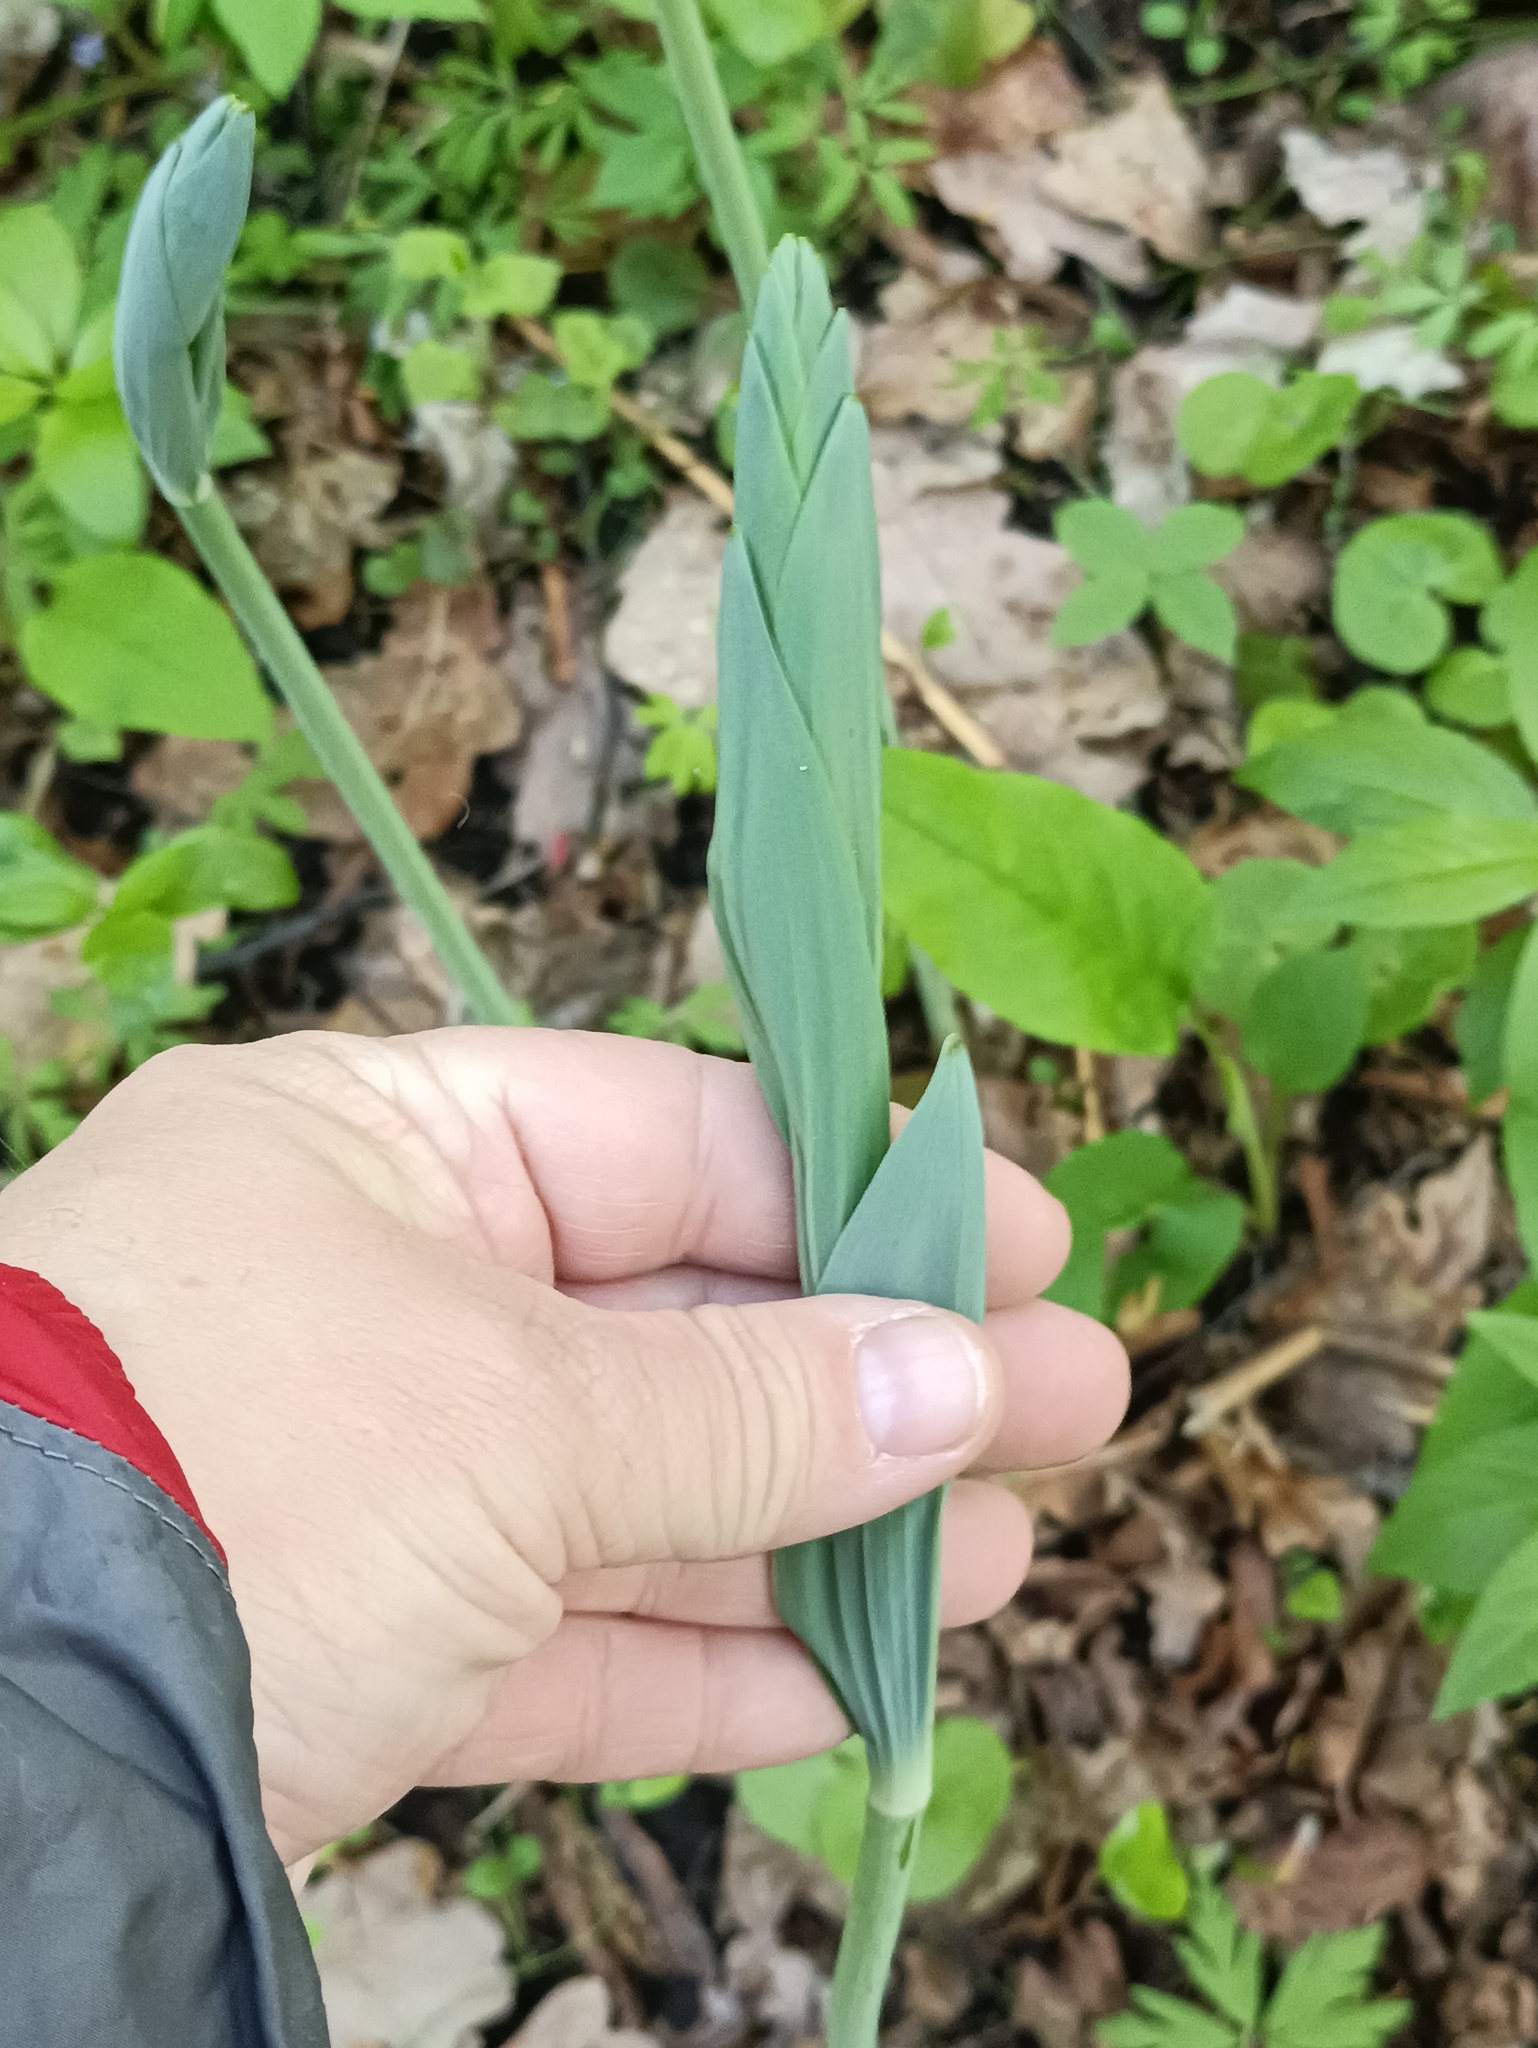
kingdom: Plantae
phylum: Tracheophyta
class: Liliopsida
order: Asparagales
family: Asparagaceae
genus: Polygonatum
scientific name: Polygonatum multiflorum
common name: Solomon's-seal
